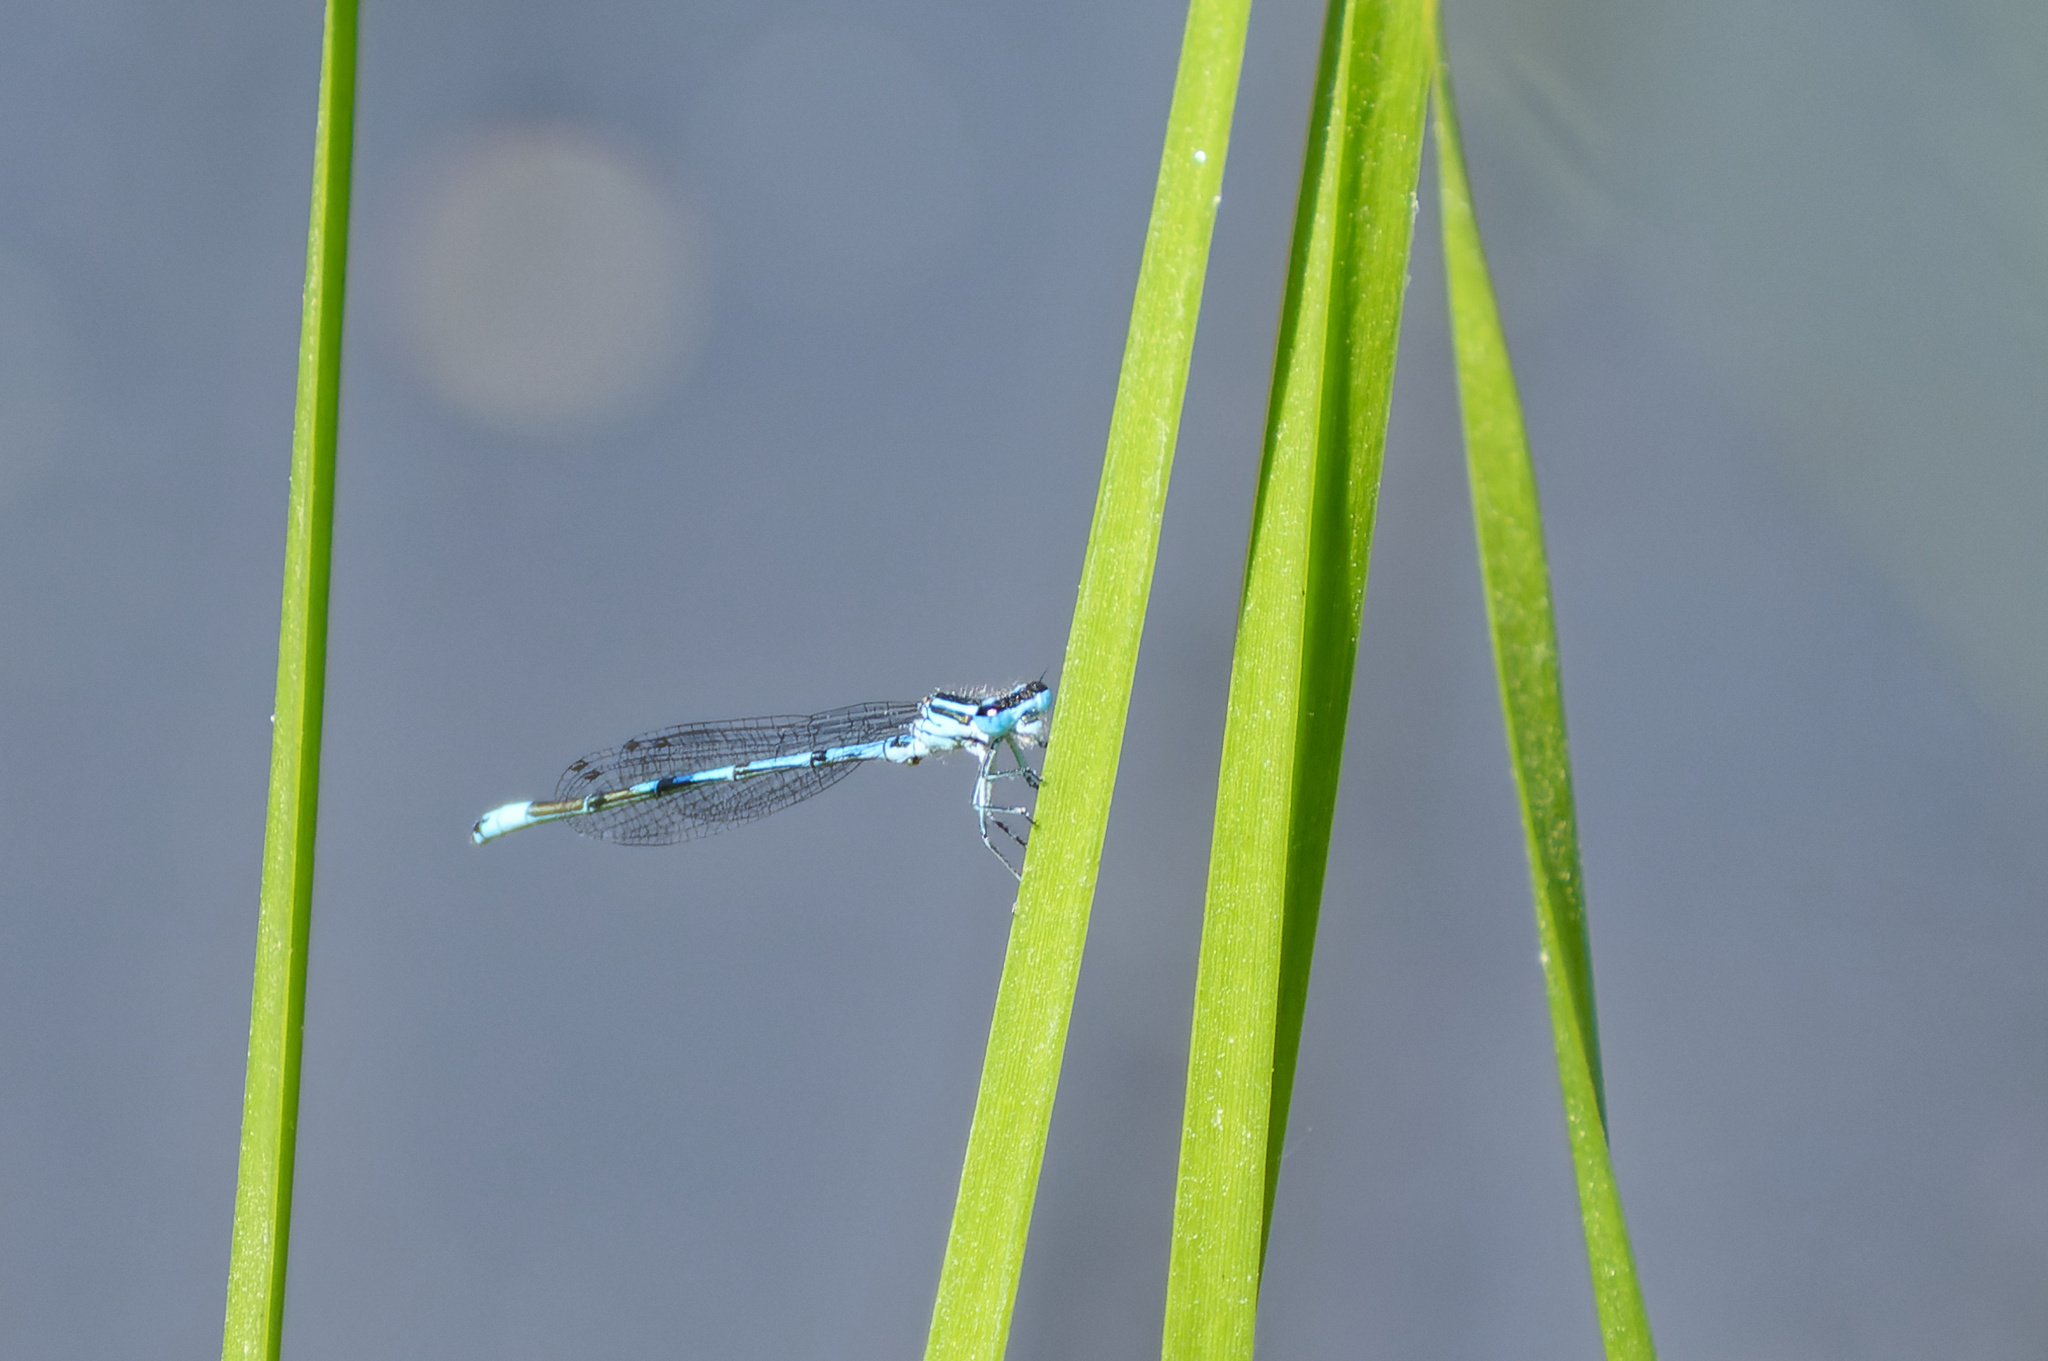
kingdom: Animalia
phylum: Arthropoda
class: Insecta
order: Odonata
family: Coenagrionidae
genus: Coenagrion
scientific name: Coenagrion puella
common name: Azure damselfly
